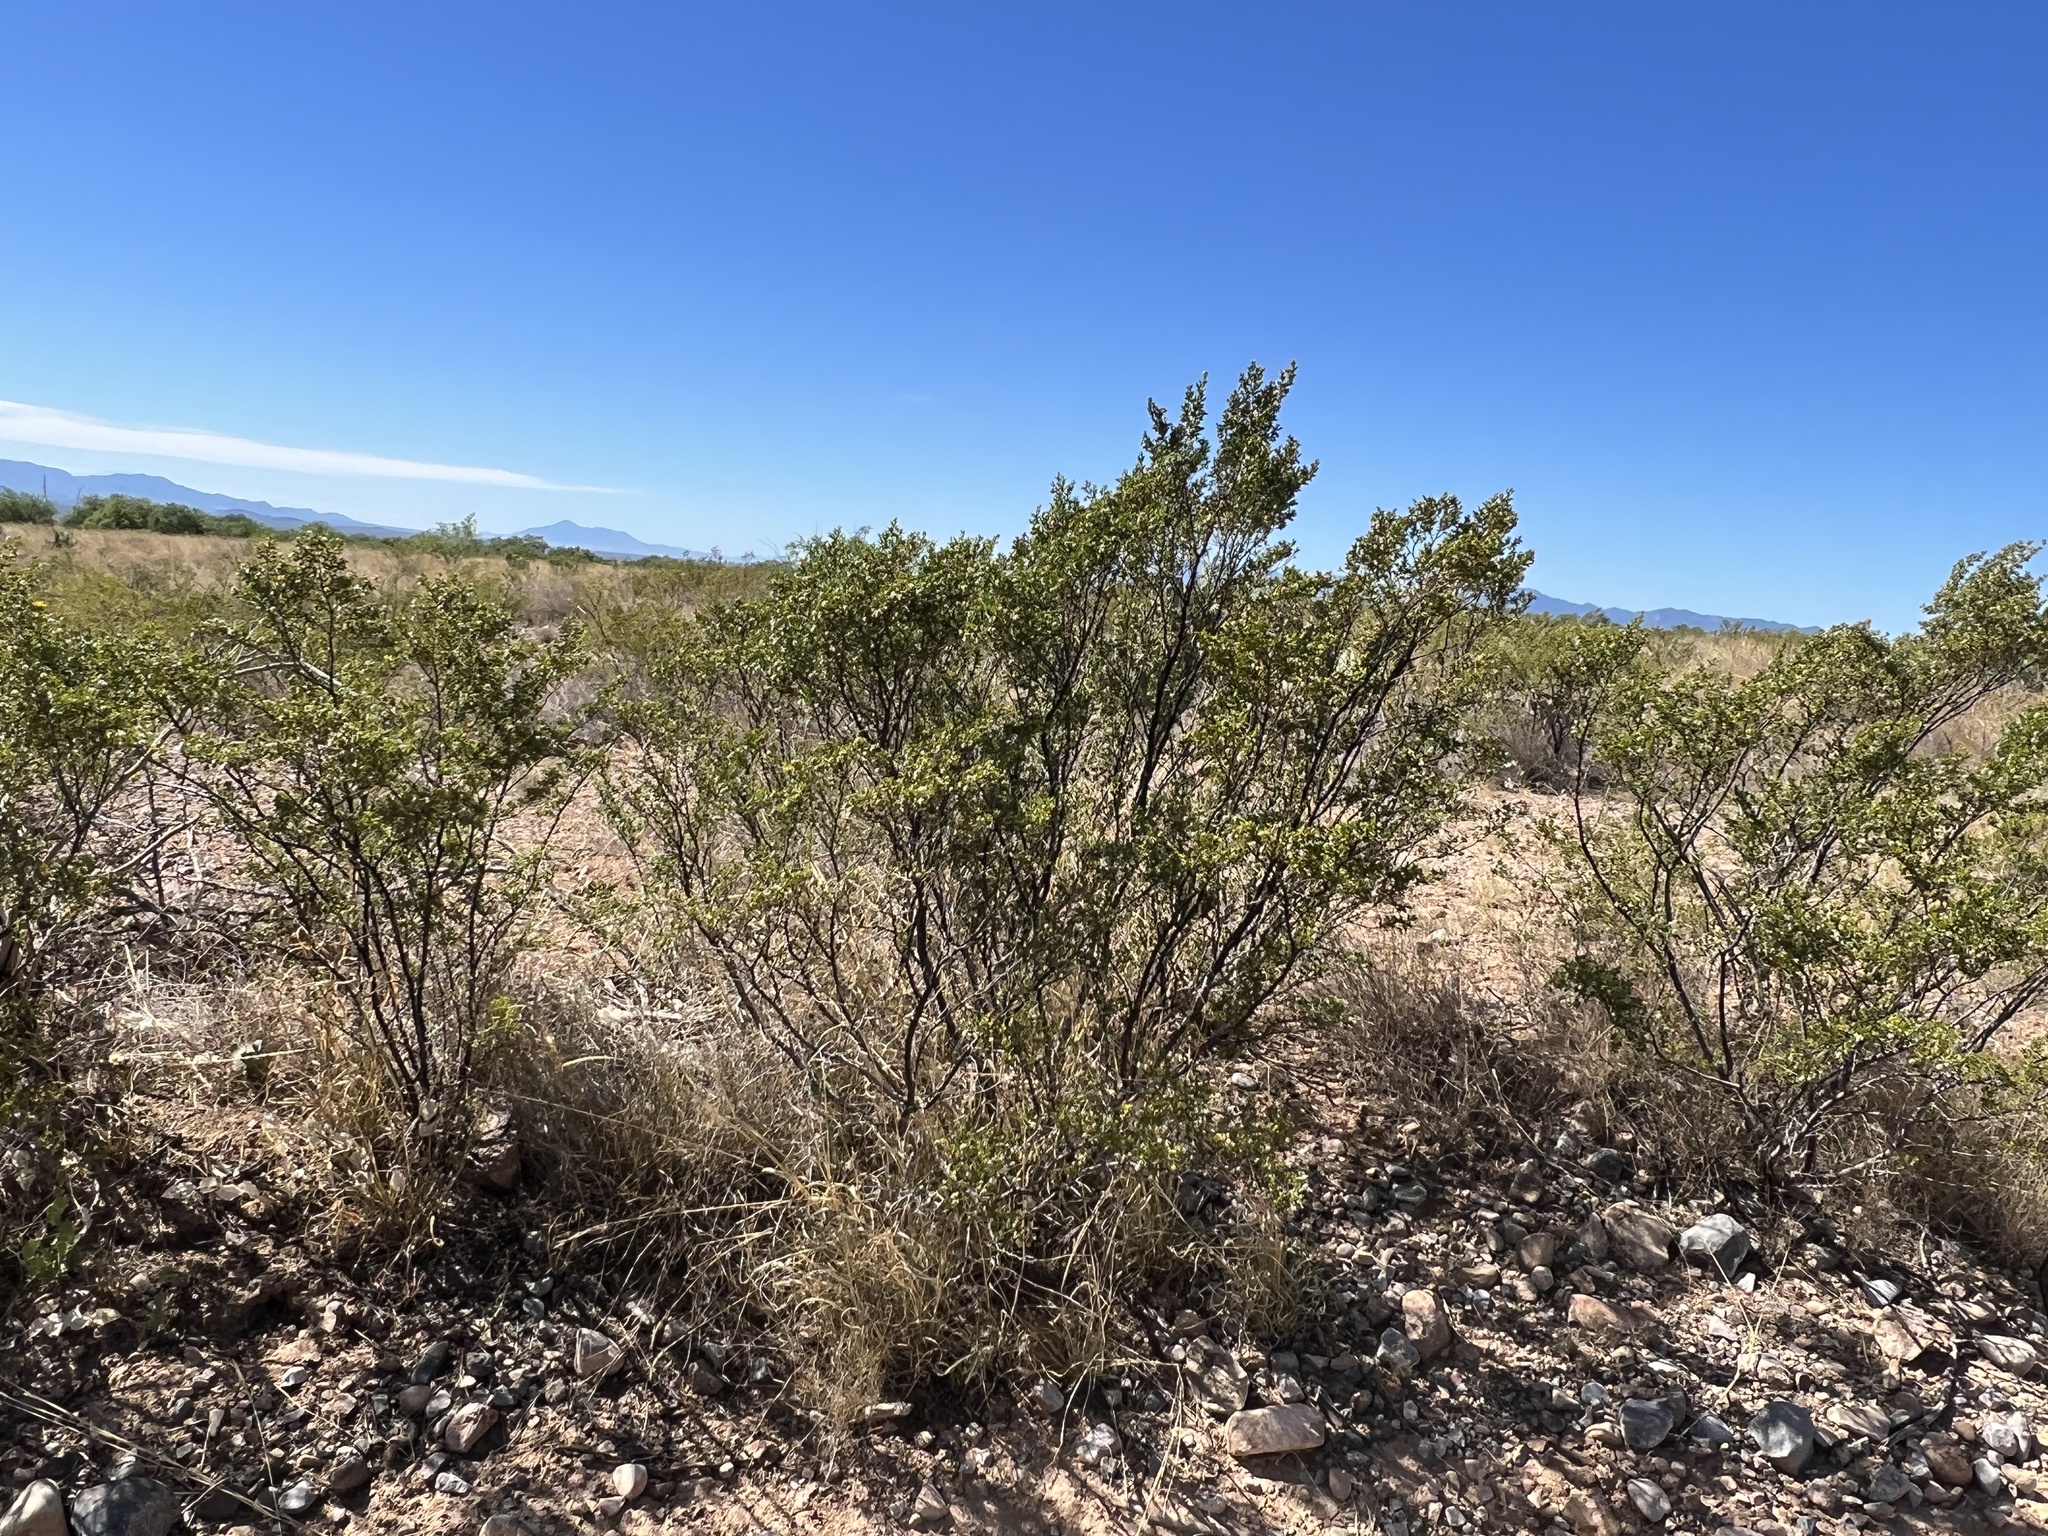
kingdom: Plantae
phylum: Tracheophyta
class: Magnoliopsida
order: Zygophyllales
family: Zygophyllaceae
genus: Larrea
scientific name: Larrea tridentata
